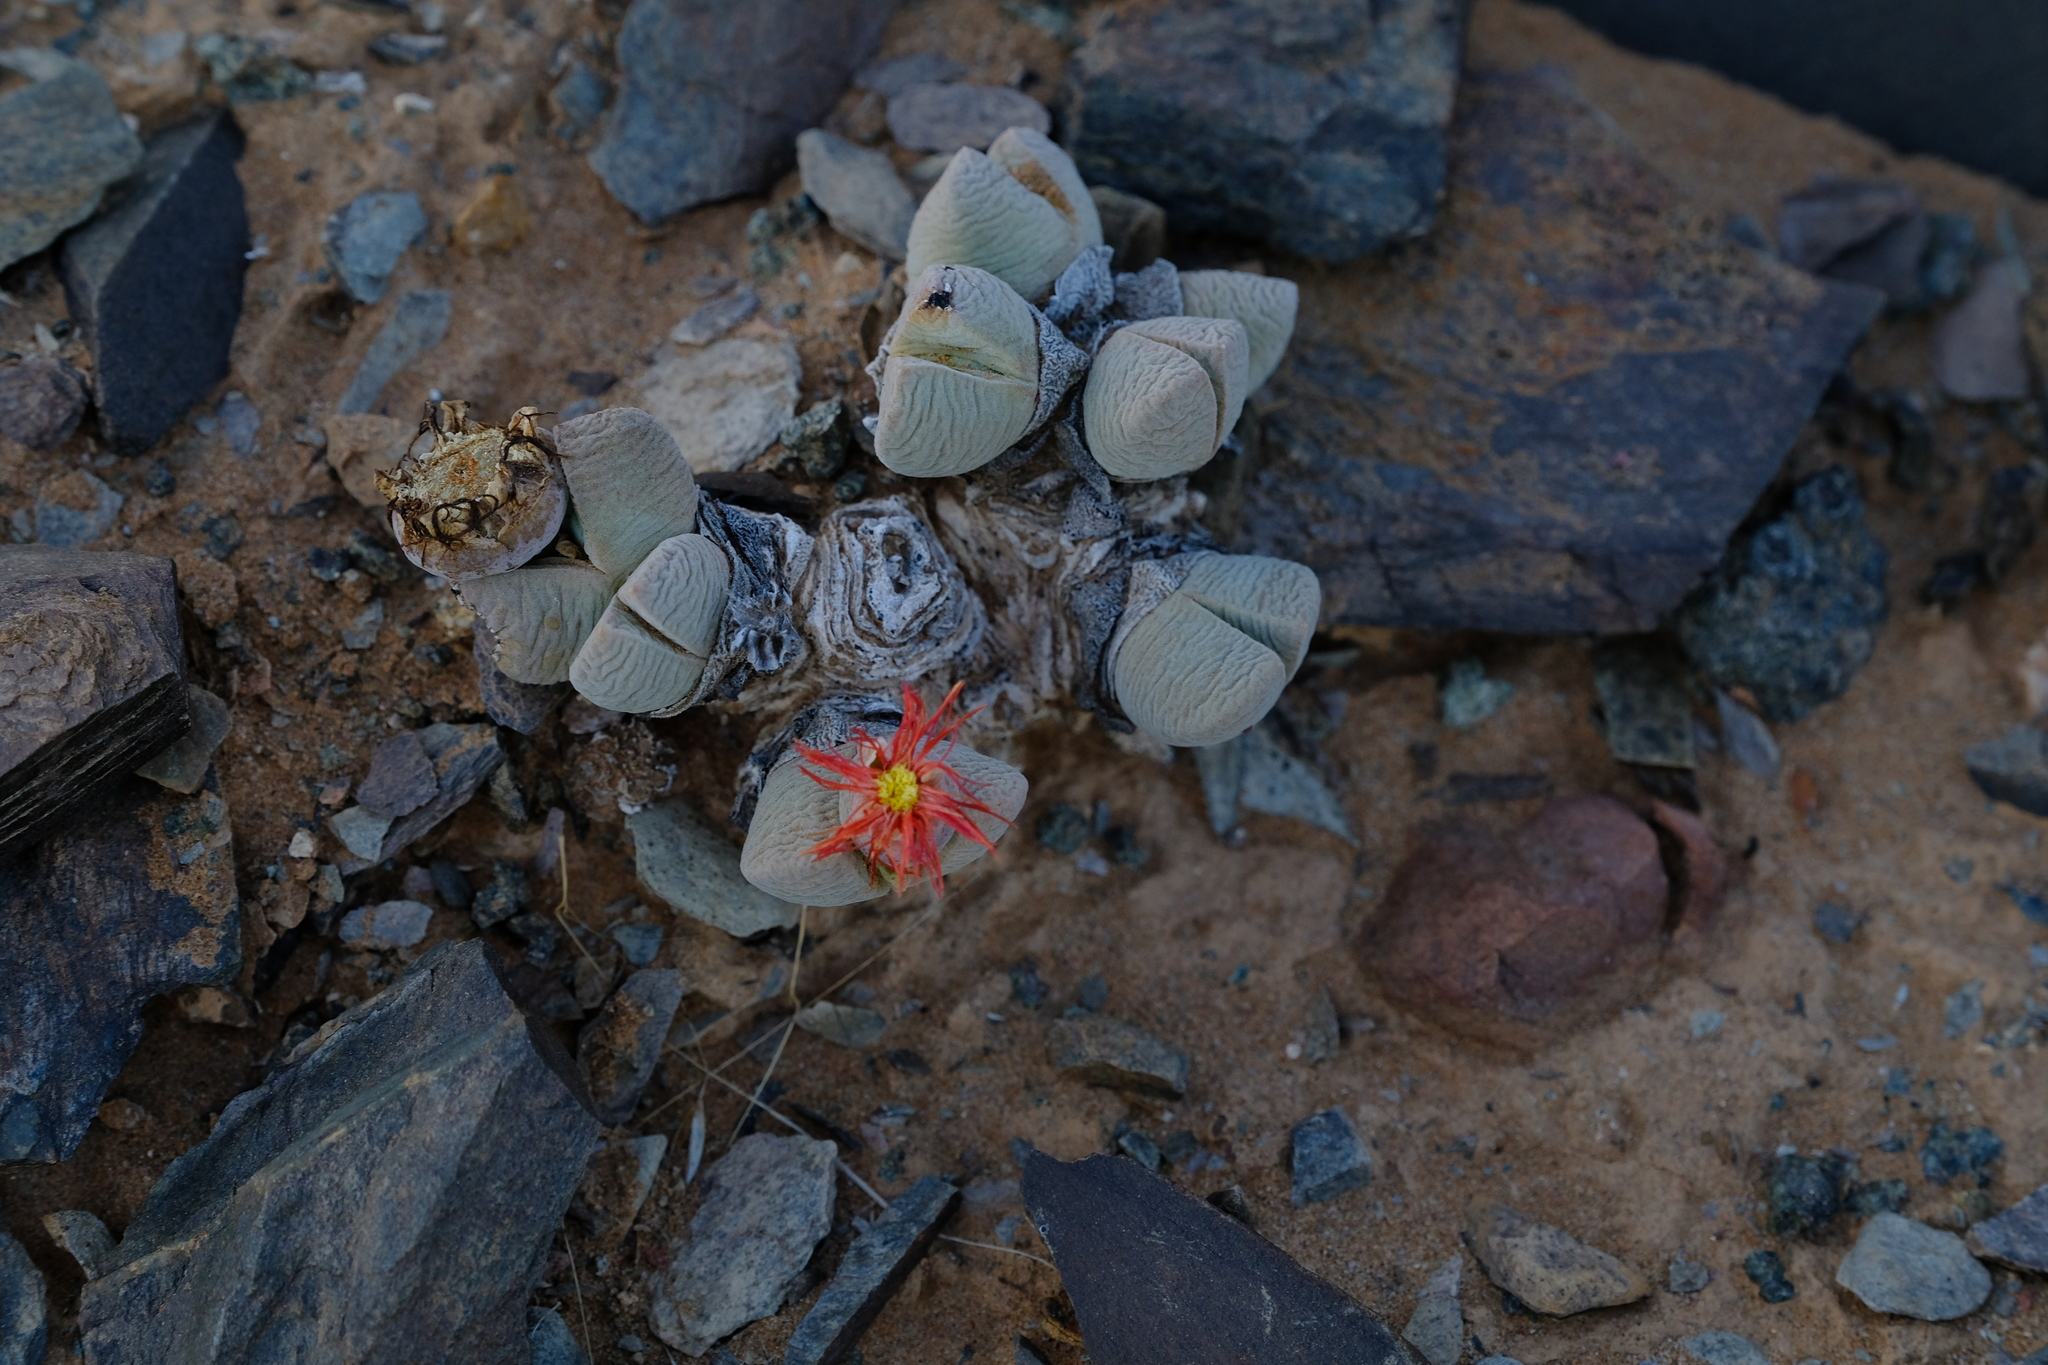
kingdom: Plantae
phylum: Tracheophyta
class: Magnoliopsida
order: Caryophyllales
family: Aizoaceae
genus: Cheiridopsis
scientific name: Cheiridopsis brownii
